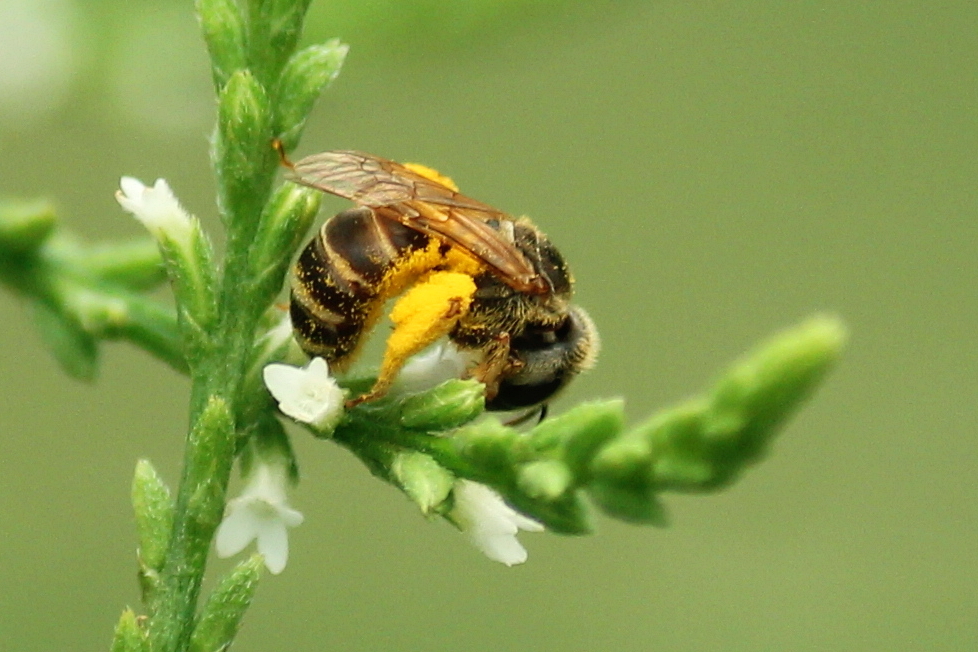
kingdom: Animalia
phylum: Arthropoda
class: Insecta
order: Hymenoptera
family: Halictidae
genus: Halictus
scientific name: Halictus ligatus
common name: Ligated furrow bee
